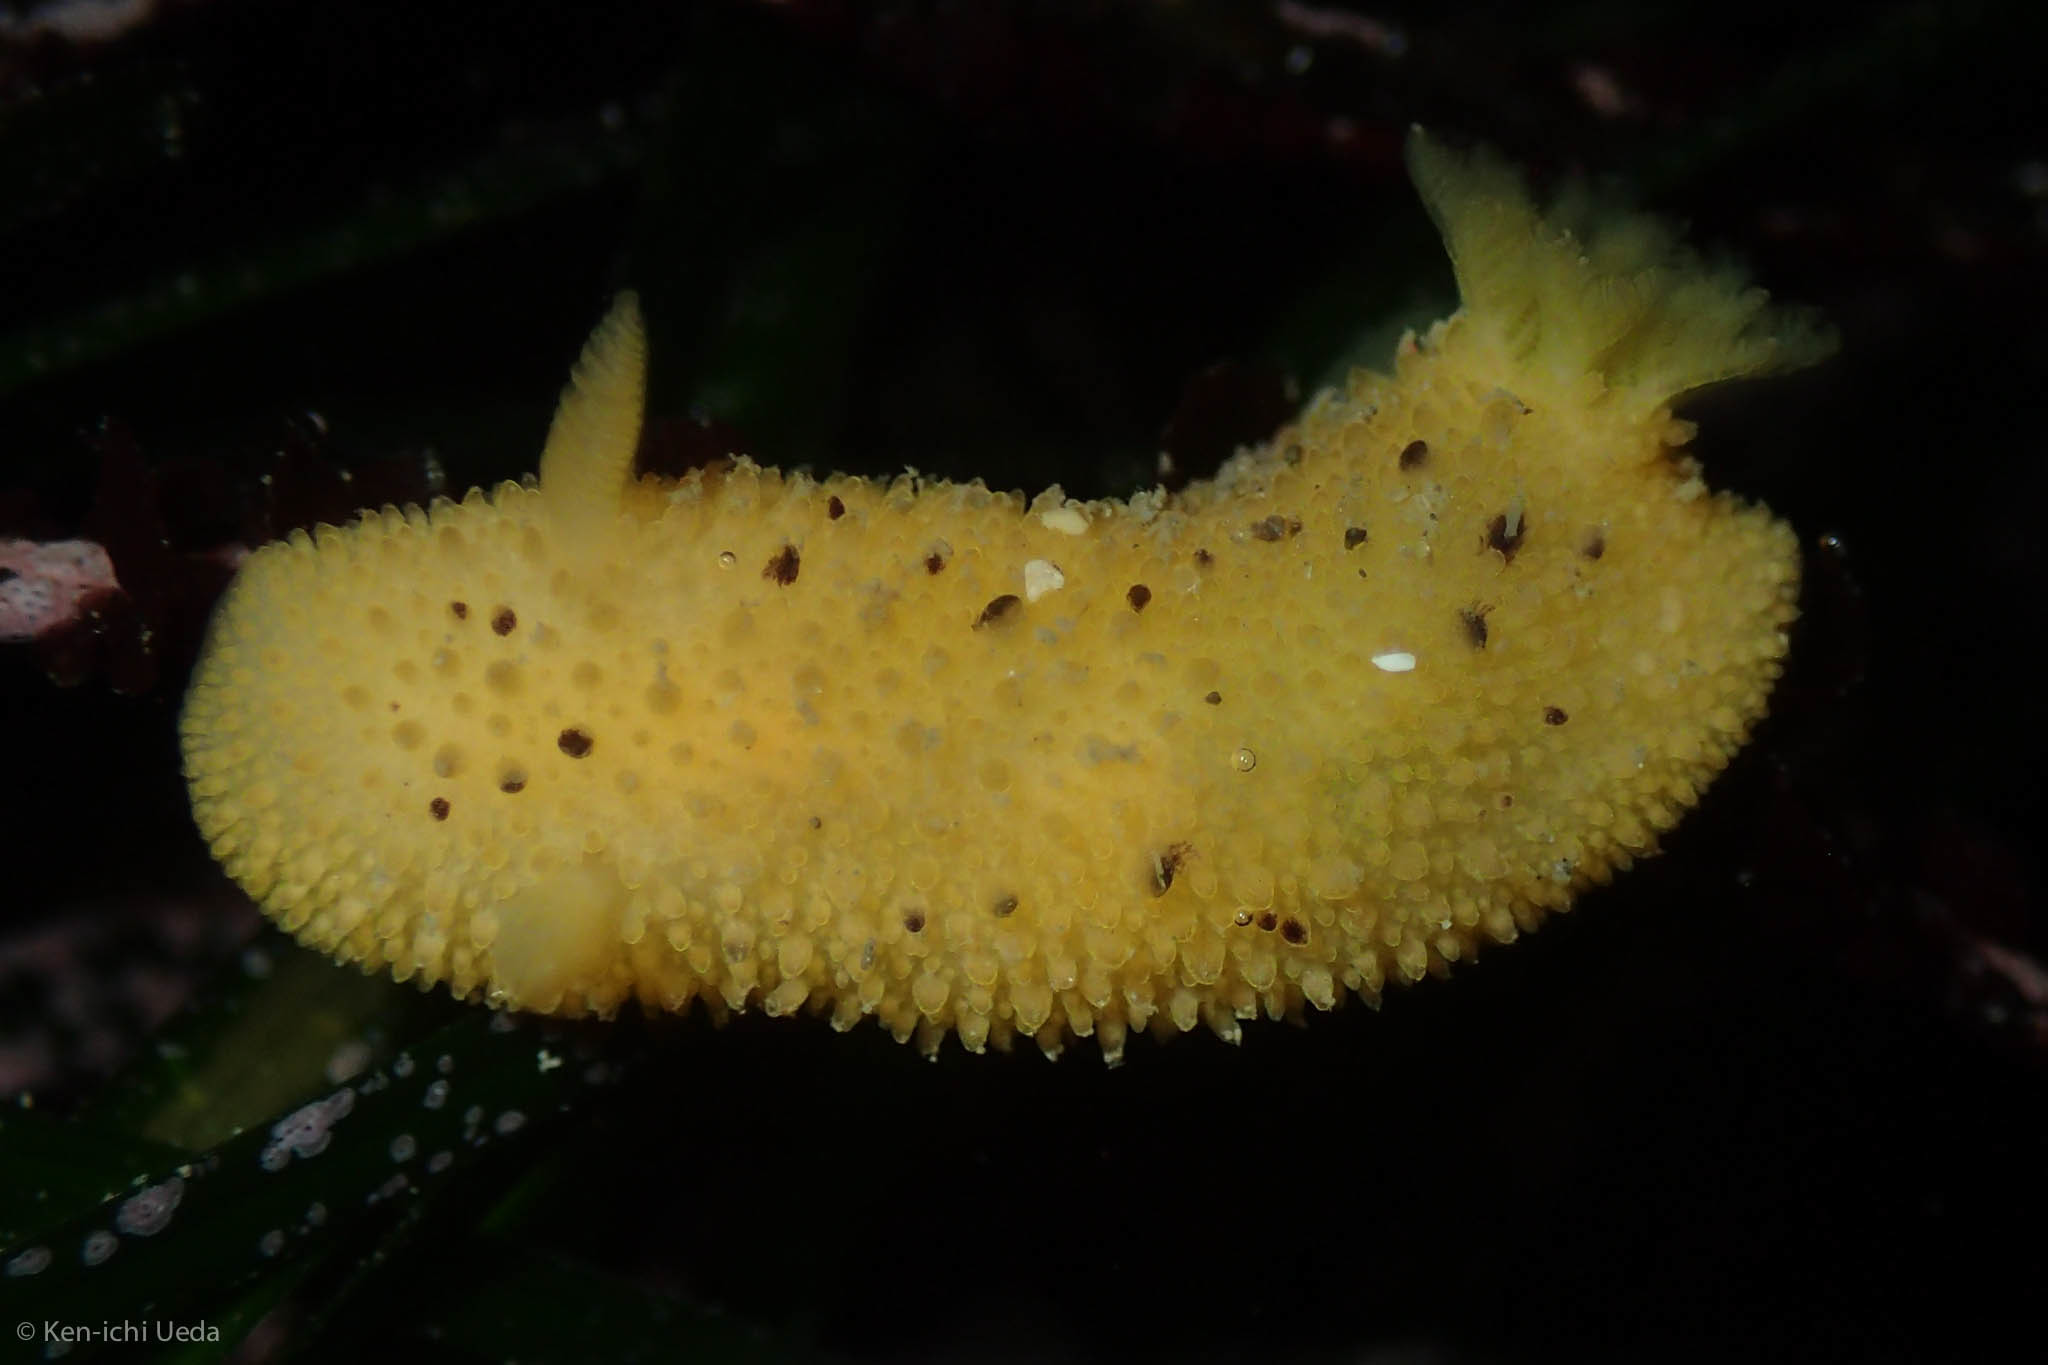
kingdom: Animalia
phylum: Mollusca
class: Gastropoda
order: Nudibranchia
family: Dorididae
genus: Doris
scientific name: Doris montereyensis
